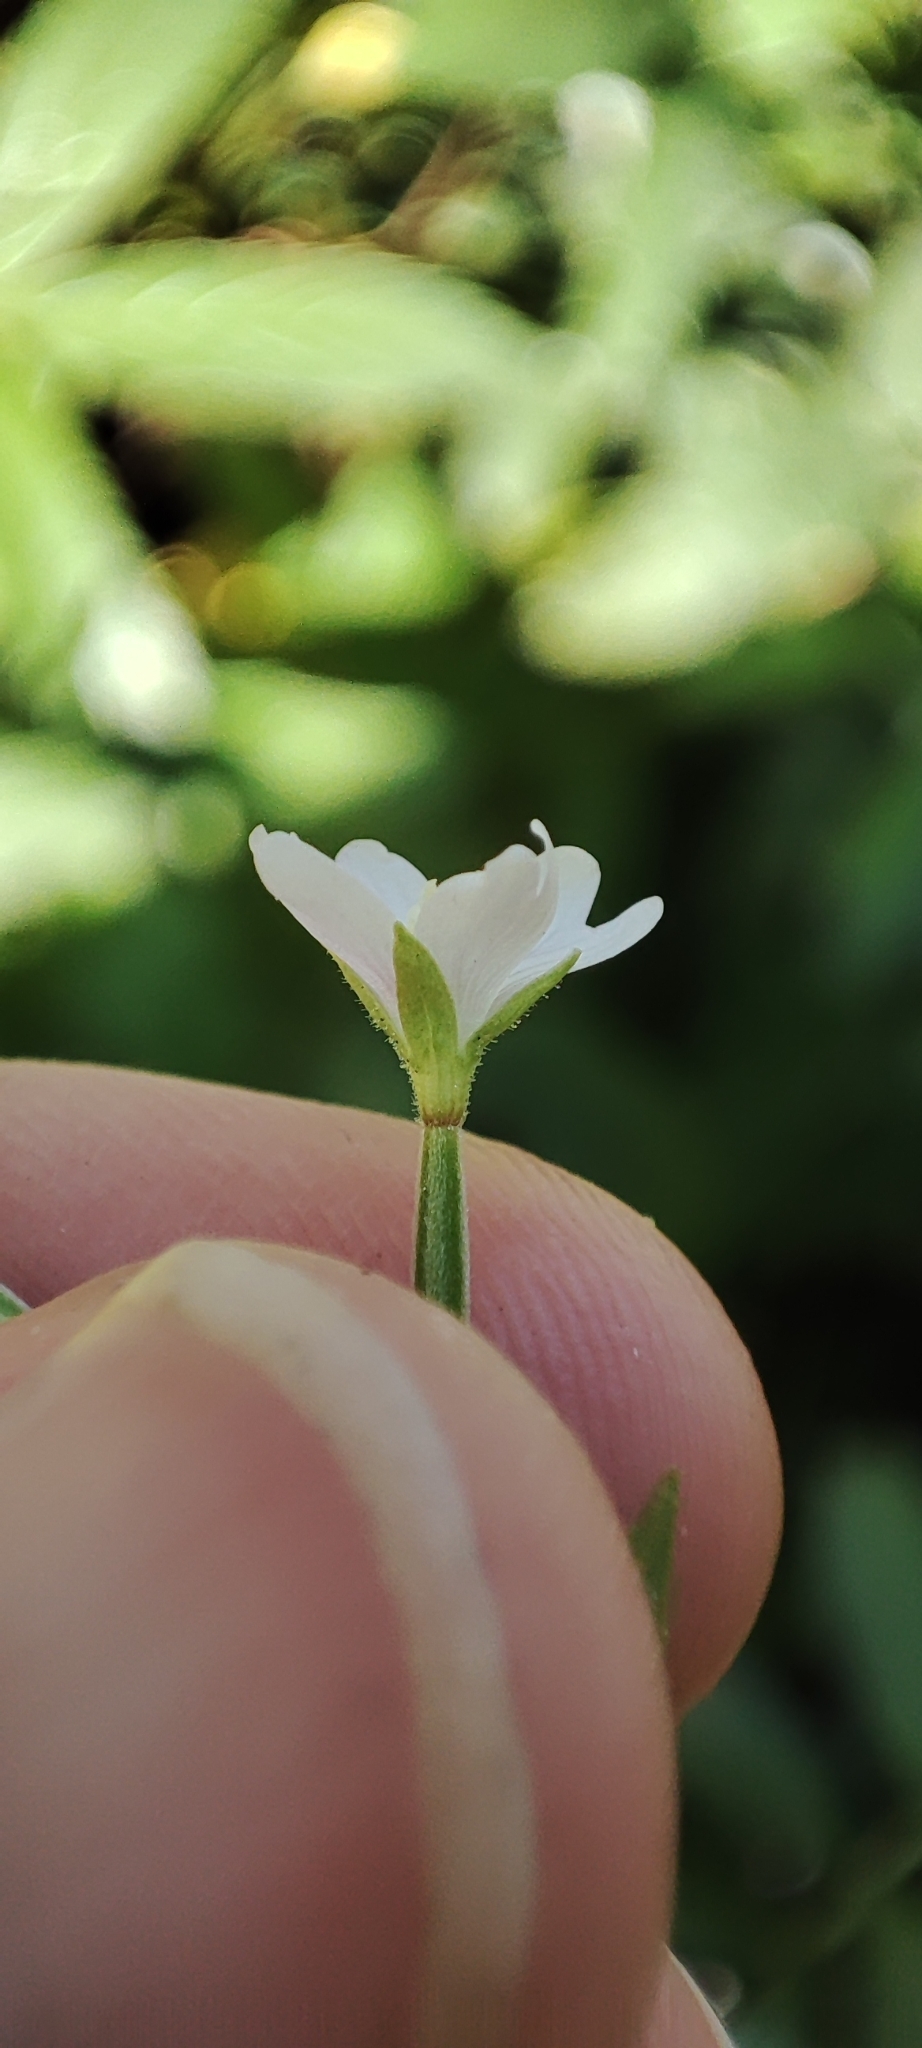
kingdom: Plantae
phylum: Tracheophyta
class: Magnoliopsida
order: Myrtales
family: Onagraceae
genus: Epilobium
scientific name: Epilobium palustre
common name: Marsh willowherb
